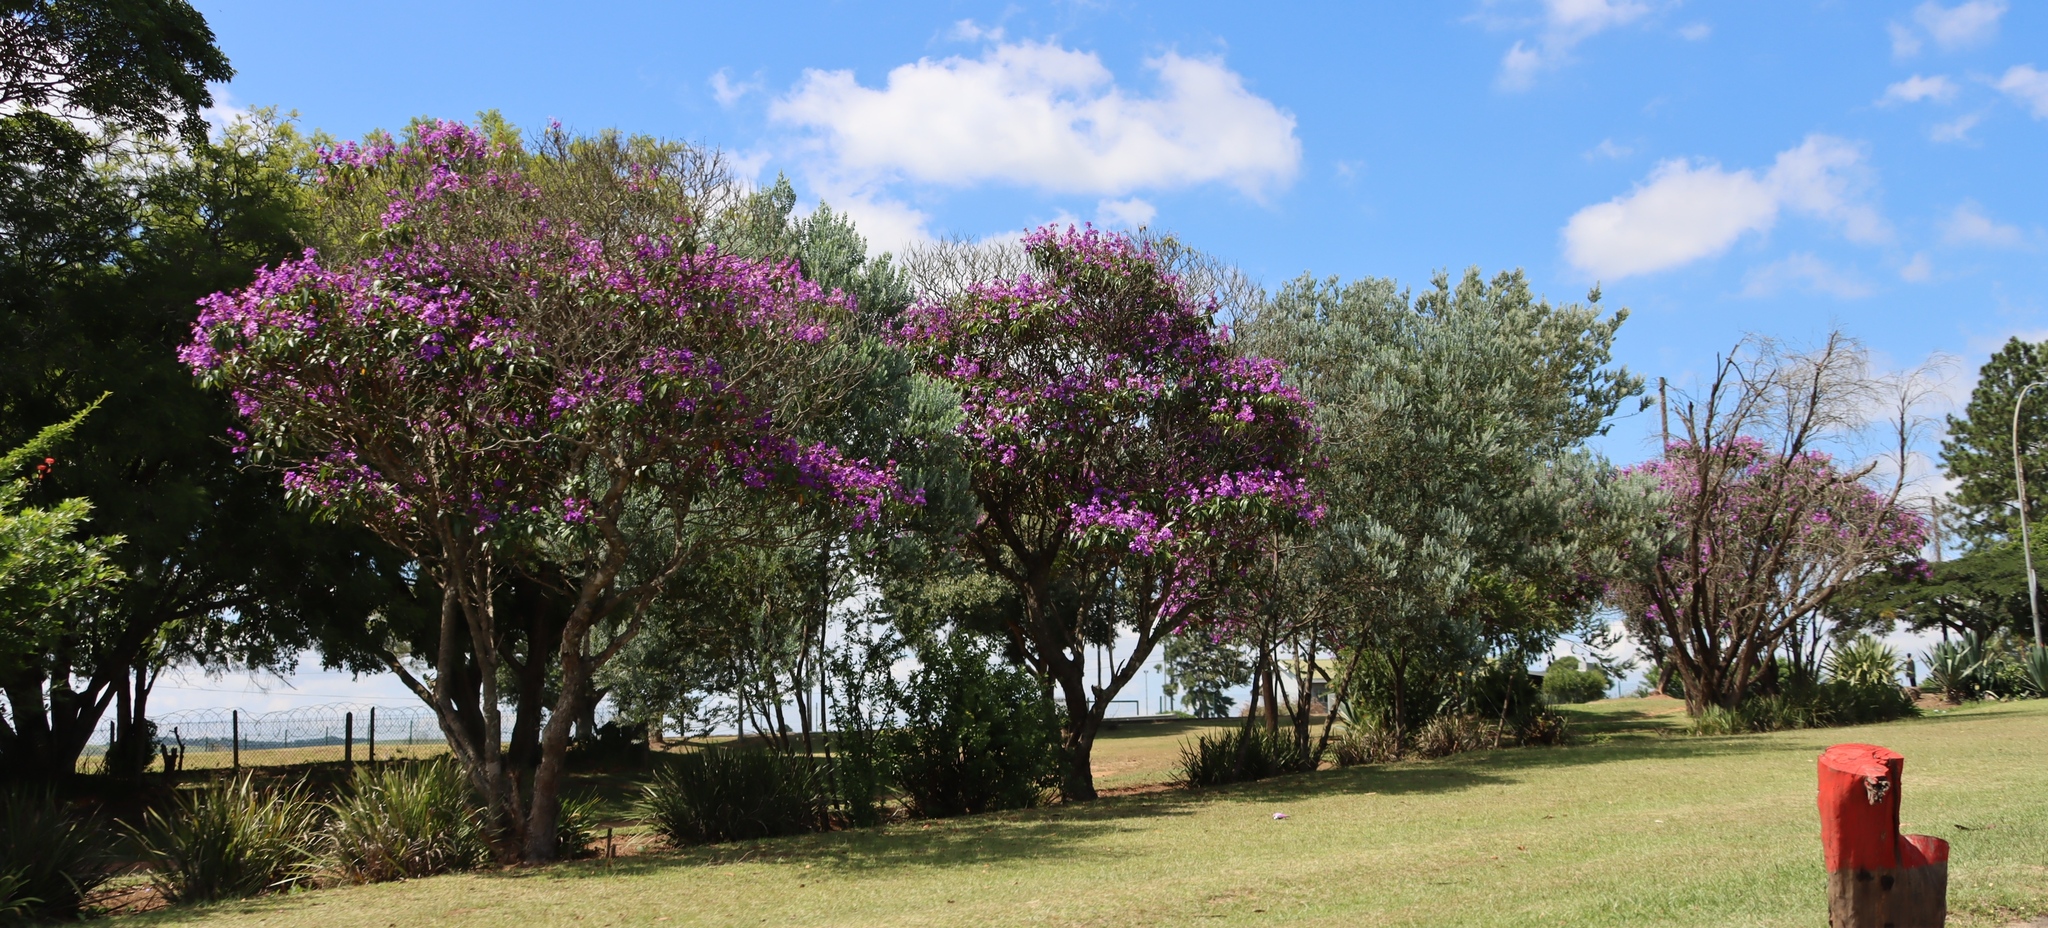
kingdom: Plantae
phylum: Tracheophyta
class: Magnoliopsida
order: Myrtales
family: Melastomataceae
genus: Pleroma
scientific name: Pleroma granulosum
